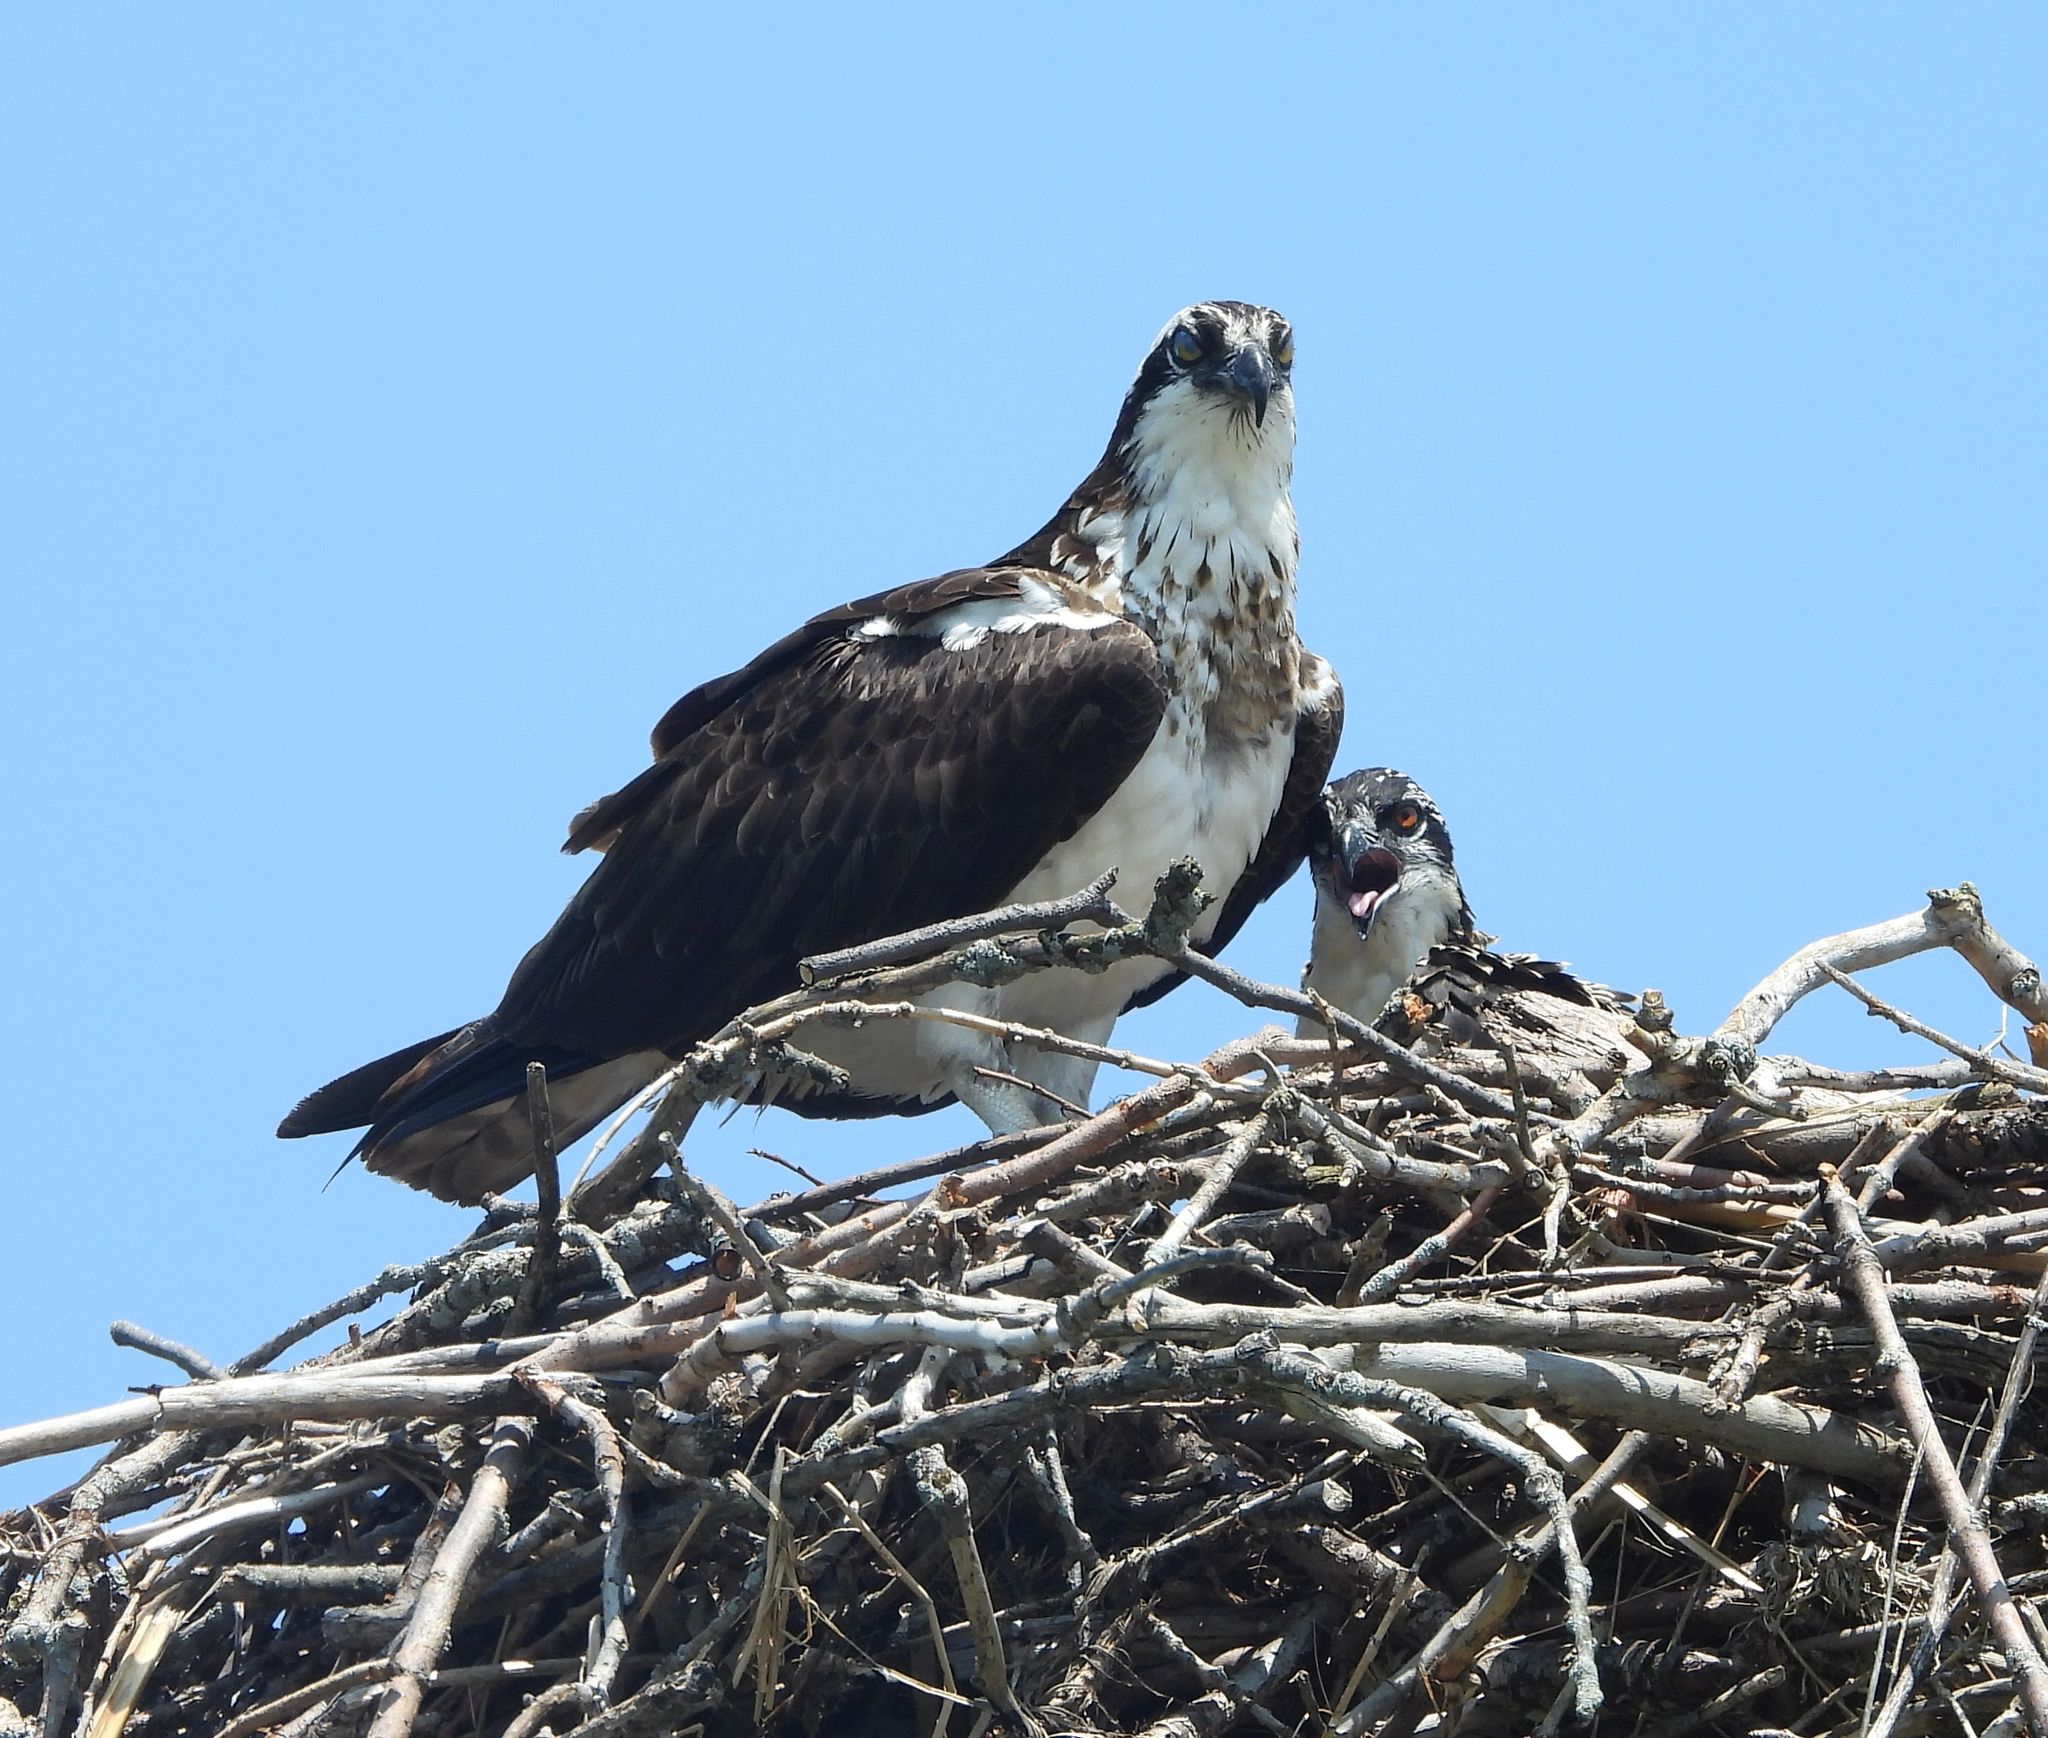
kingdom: Animalia
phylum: Chordata
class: Aves
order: Accipitriformes
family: Pandionidae
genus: Pandion
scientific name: Pandion haliaetus
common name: Osprey
